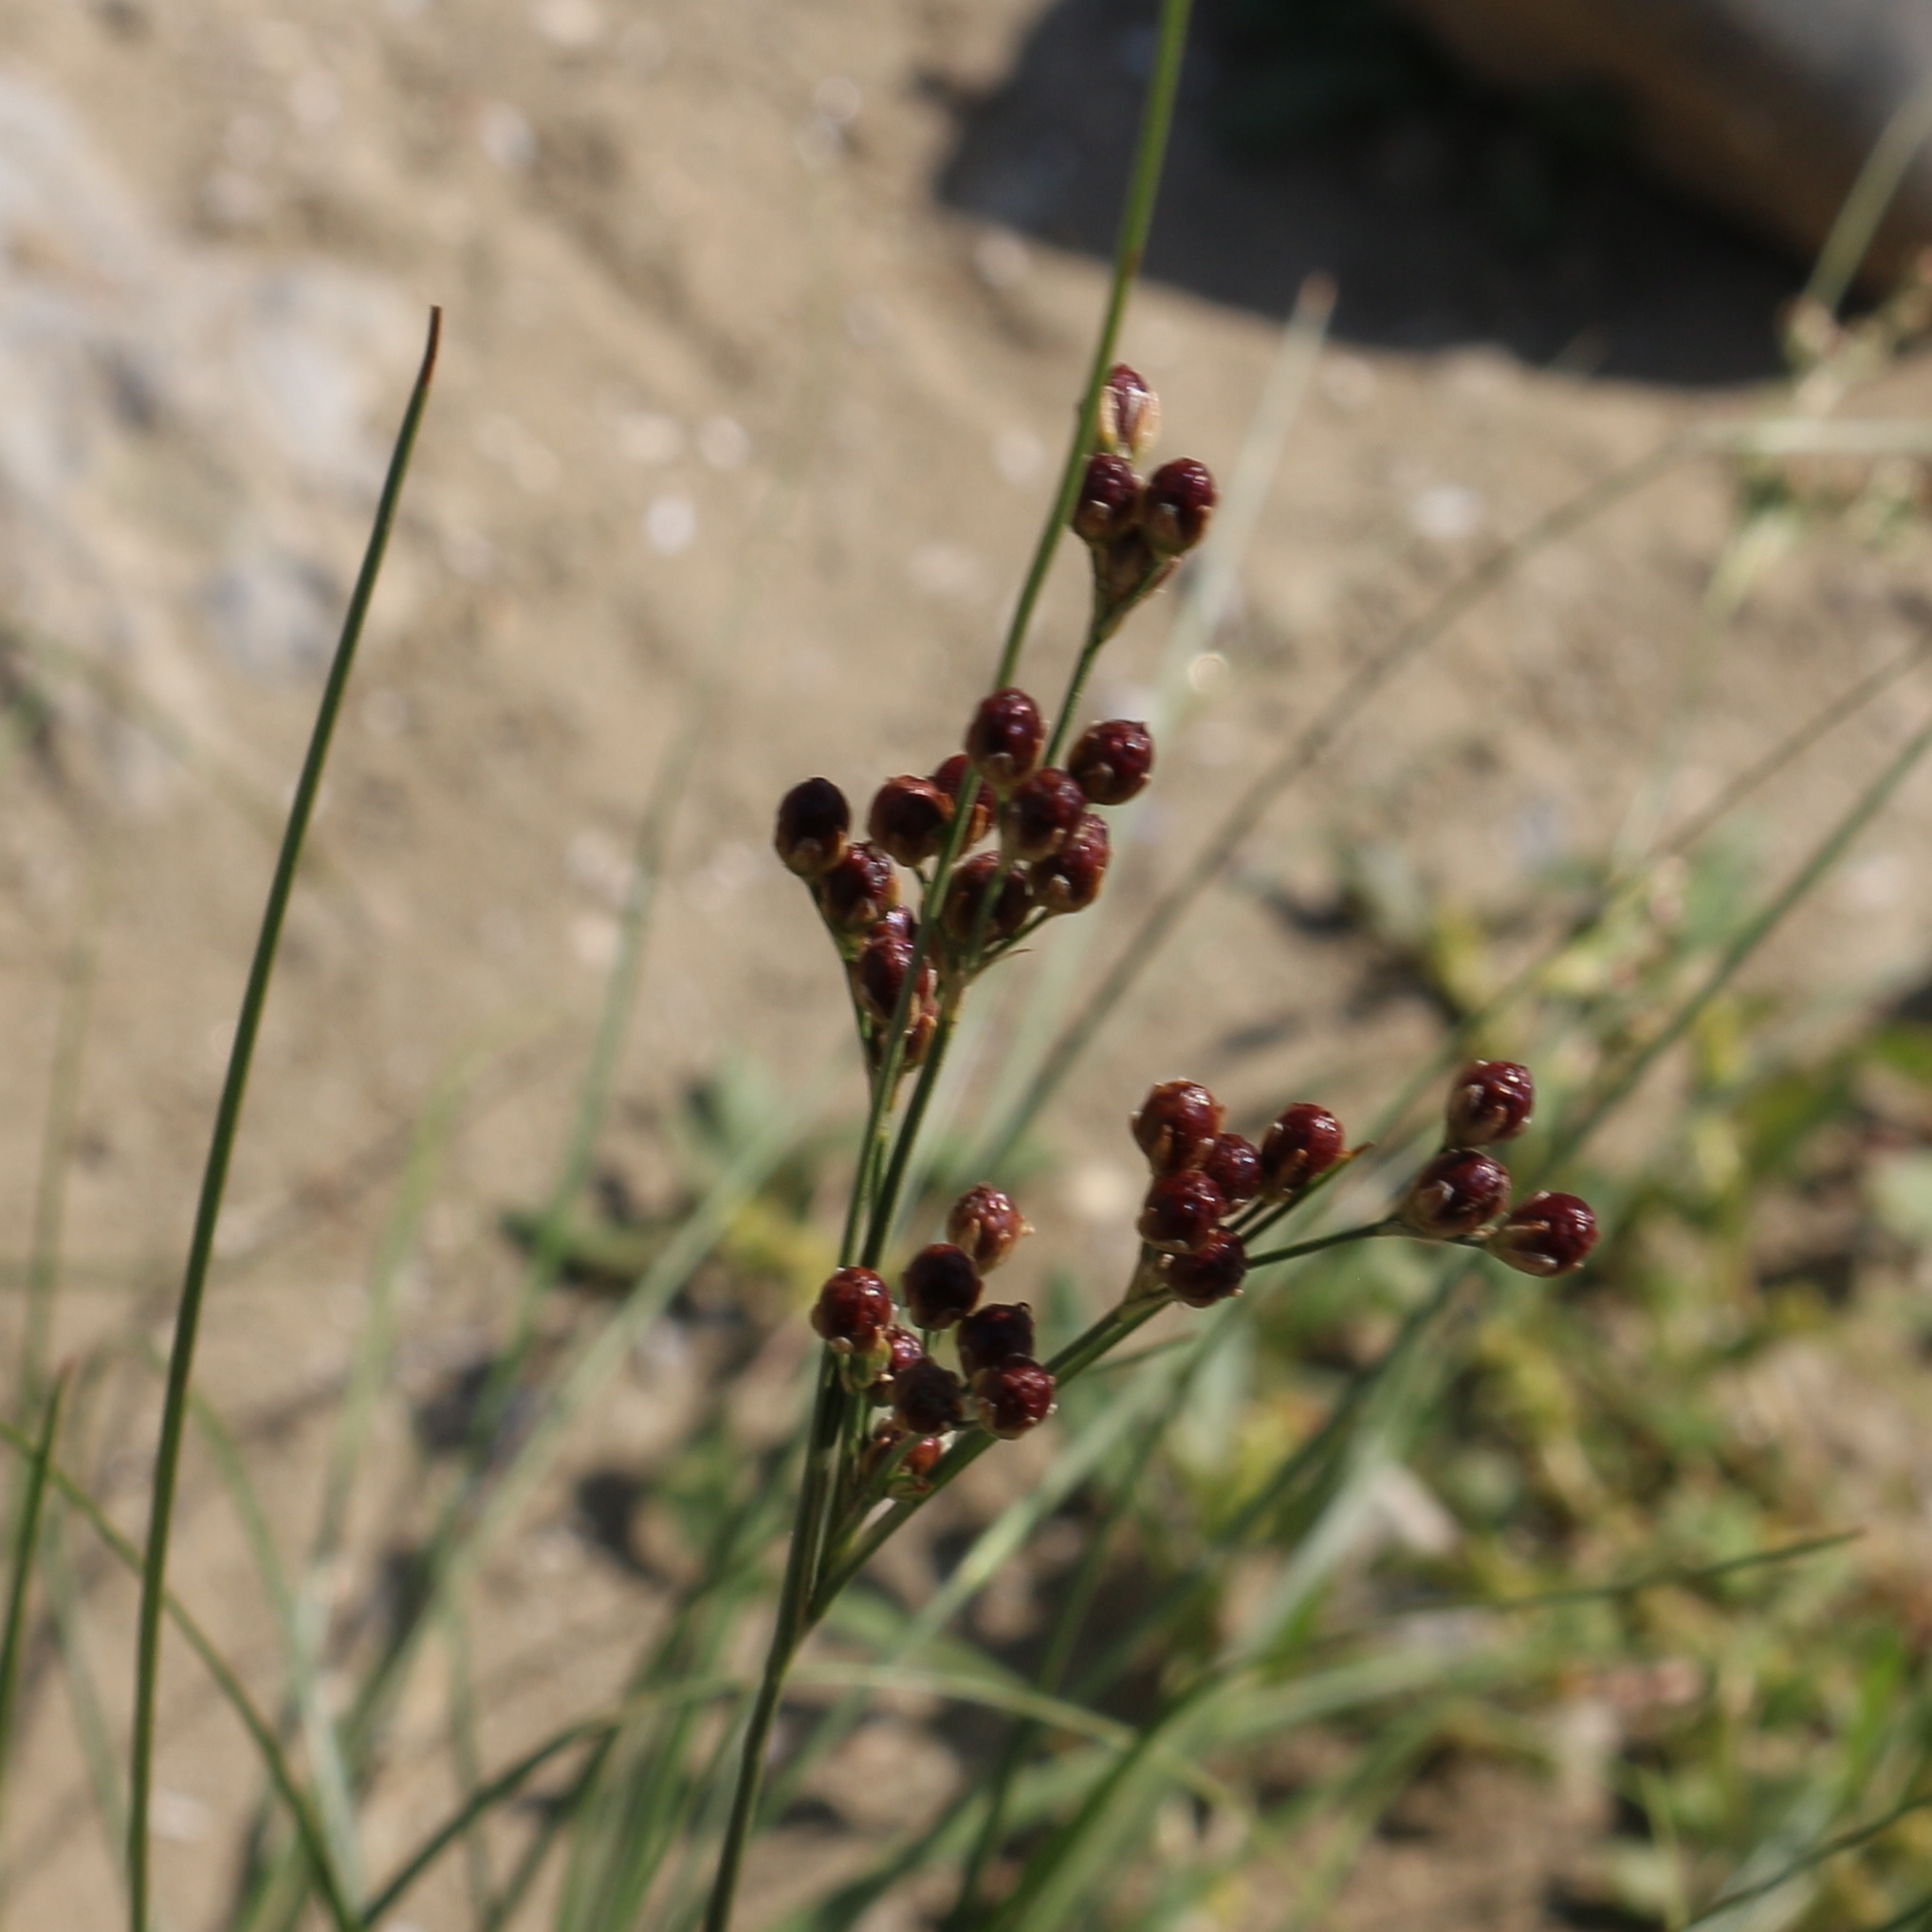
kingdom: Plantae
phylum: Tracheophyta
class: Liliopsida
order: Poales
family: Juncaceae
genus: Juncus
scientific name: Juncus compressus
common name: Round-fruited rush
